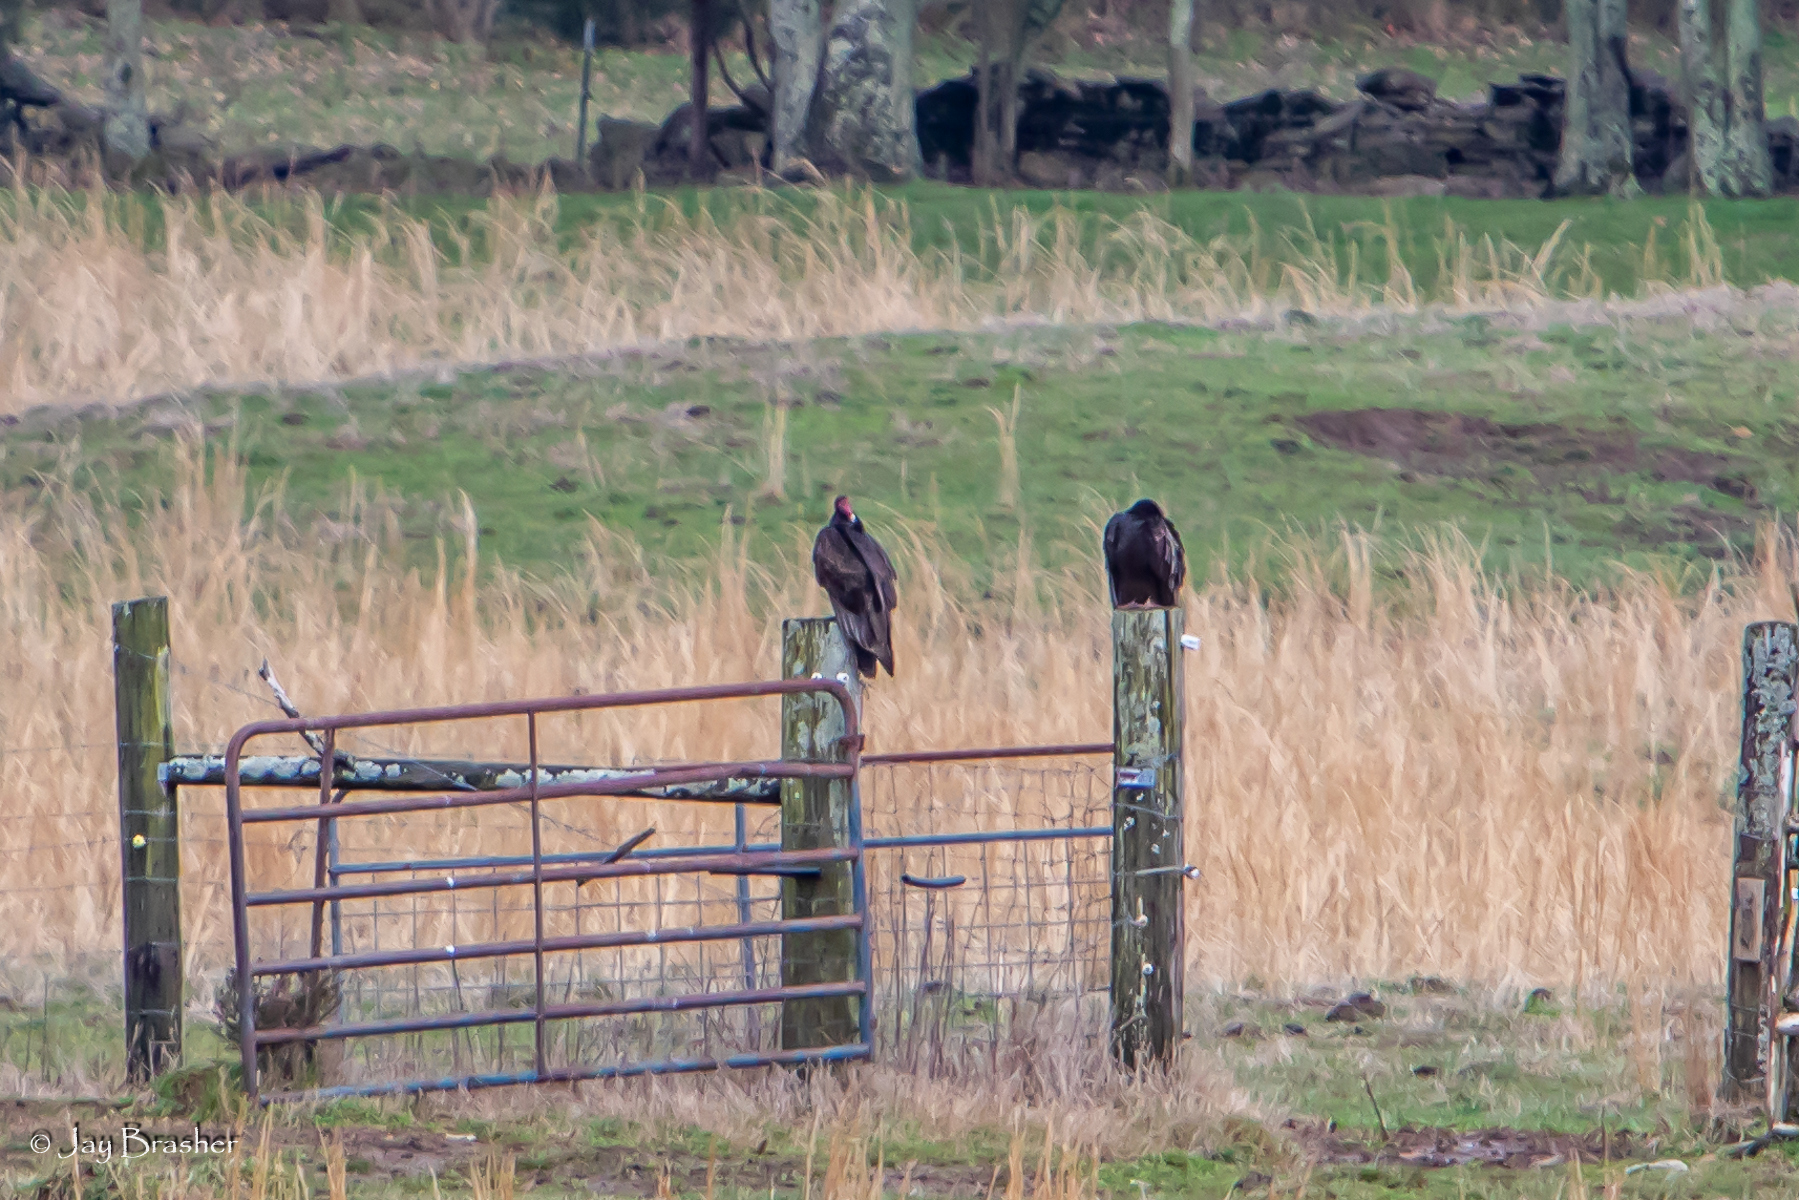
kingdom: Animalia
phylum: Chordata
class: Aves
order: Accipitriformes
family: Cathartidae
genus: Cathartes
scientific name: Cathartes aura
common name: Turkey vulture
